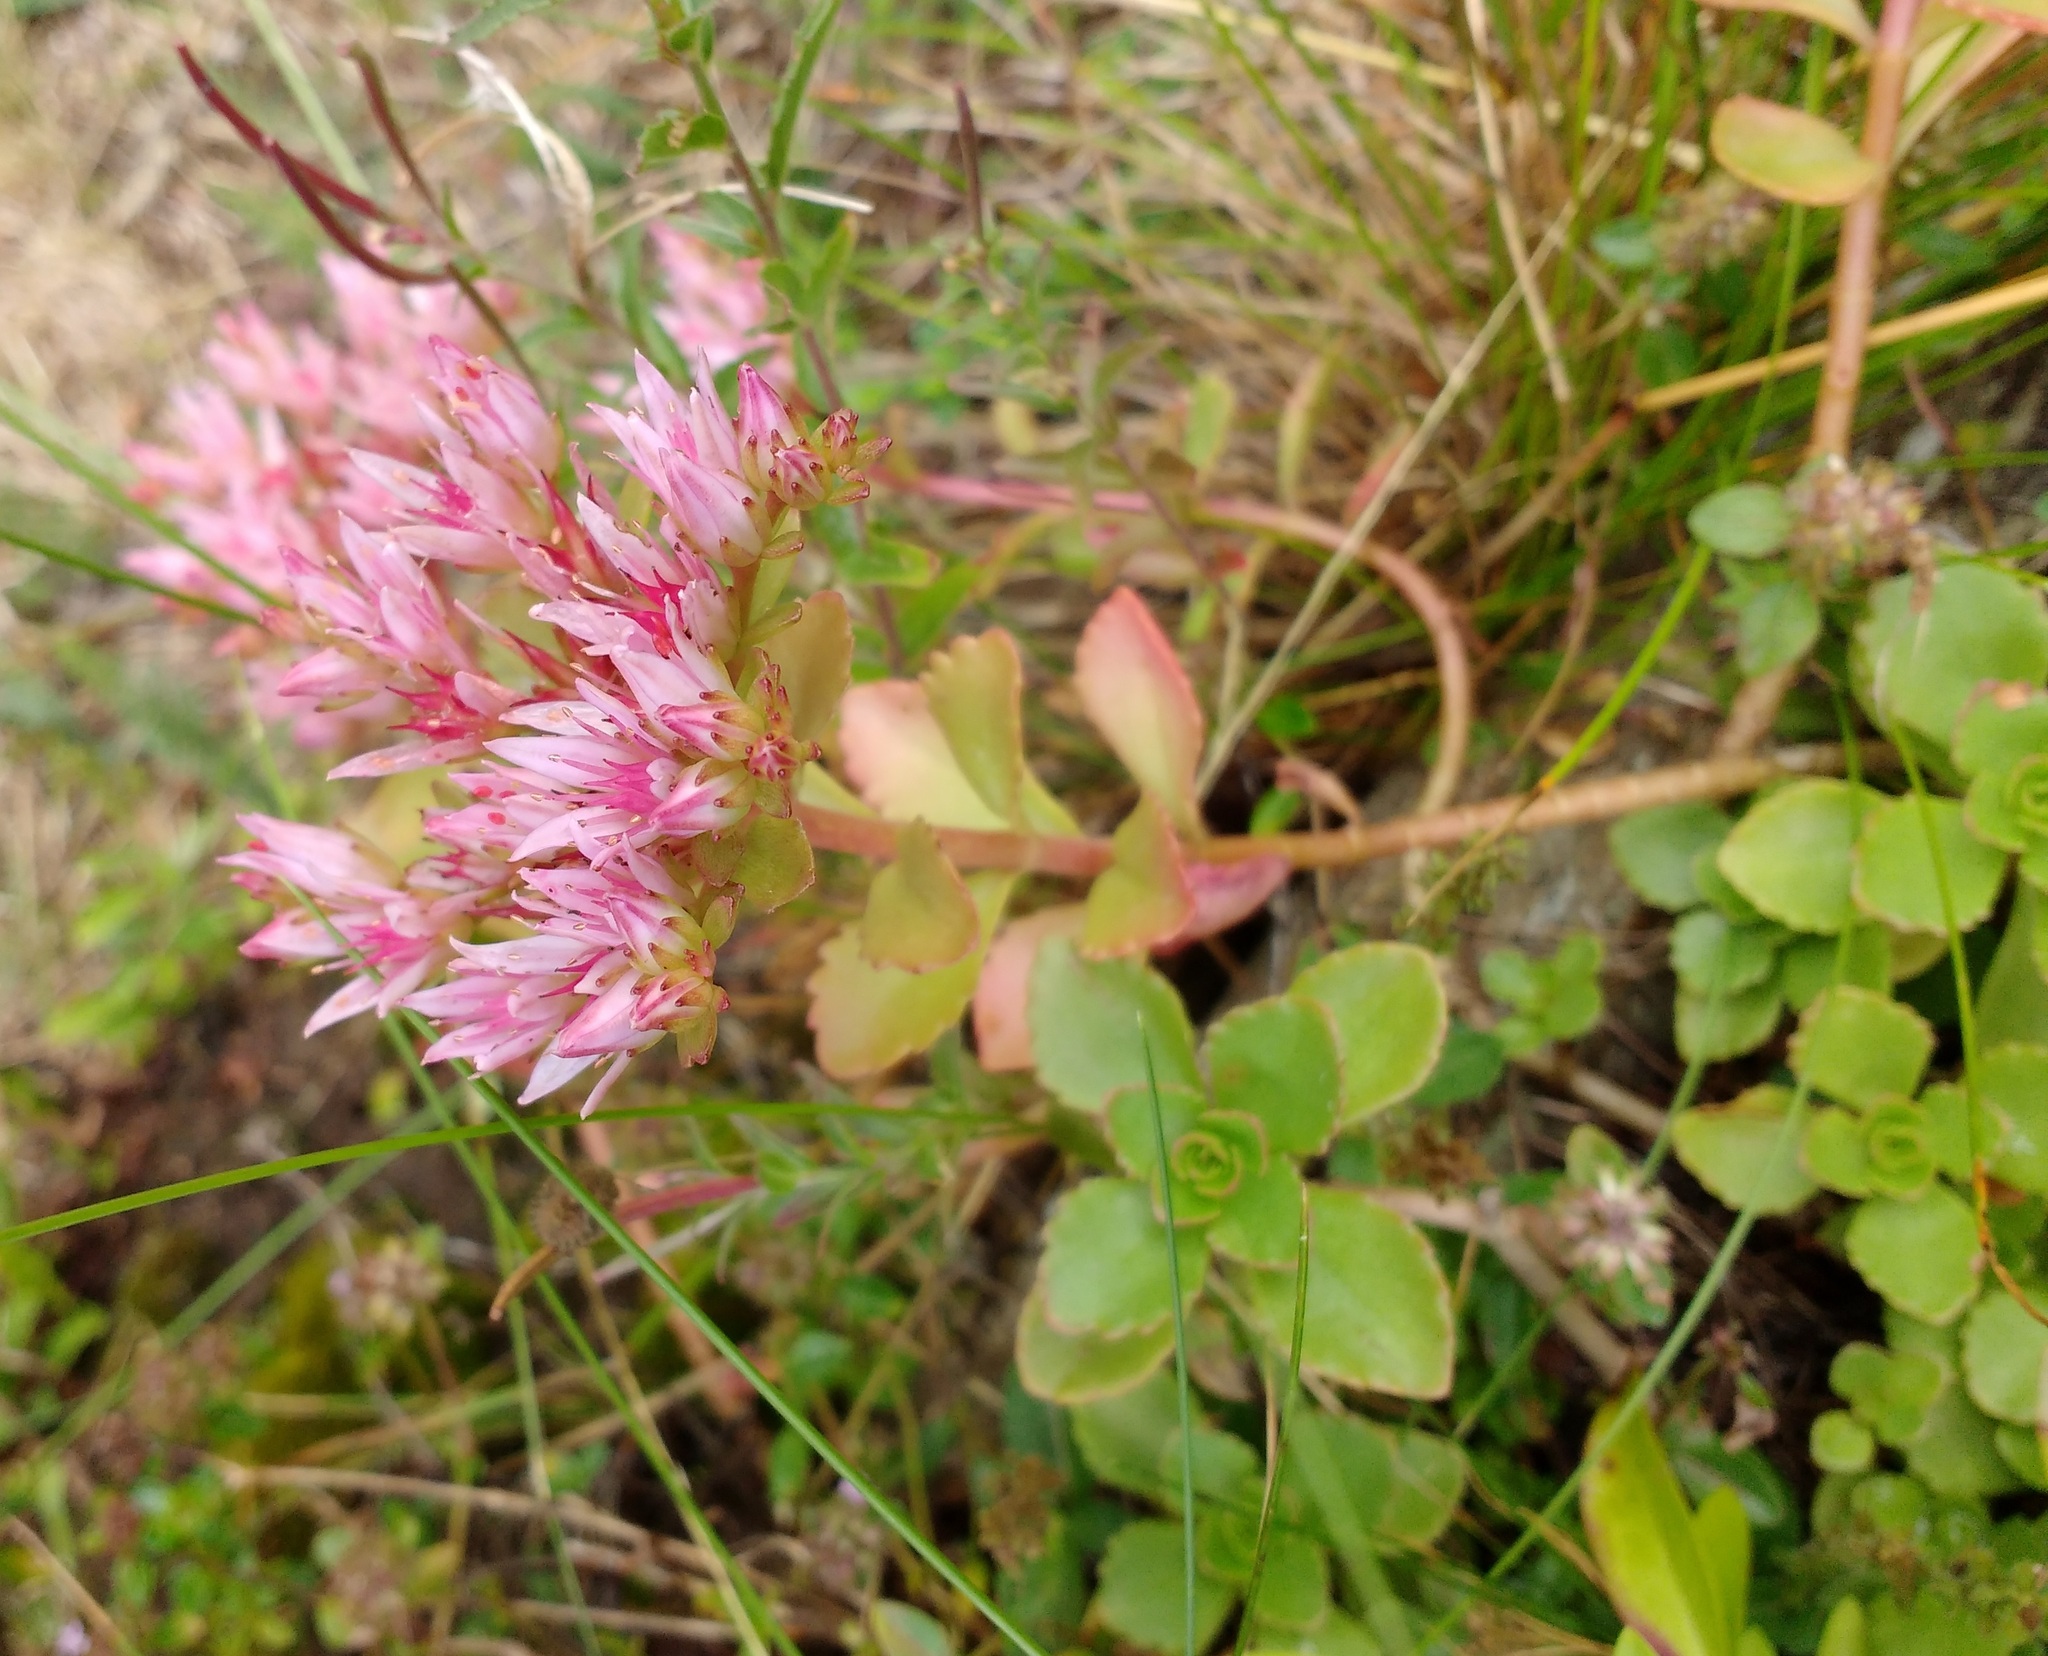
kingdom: Plantae
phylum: Tracheophyta
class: Magnoliopsida
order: Saxifragales
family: Crassulaceae
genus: Phedimus
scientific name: Phedimus spurius
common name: Caucasian stonecrop
